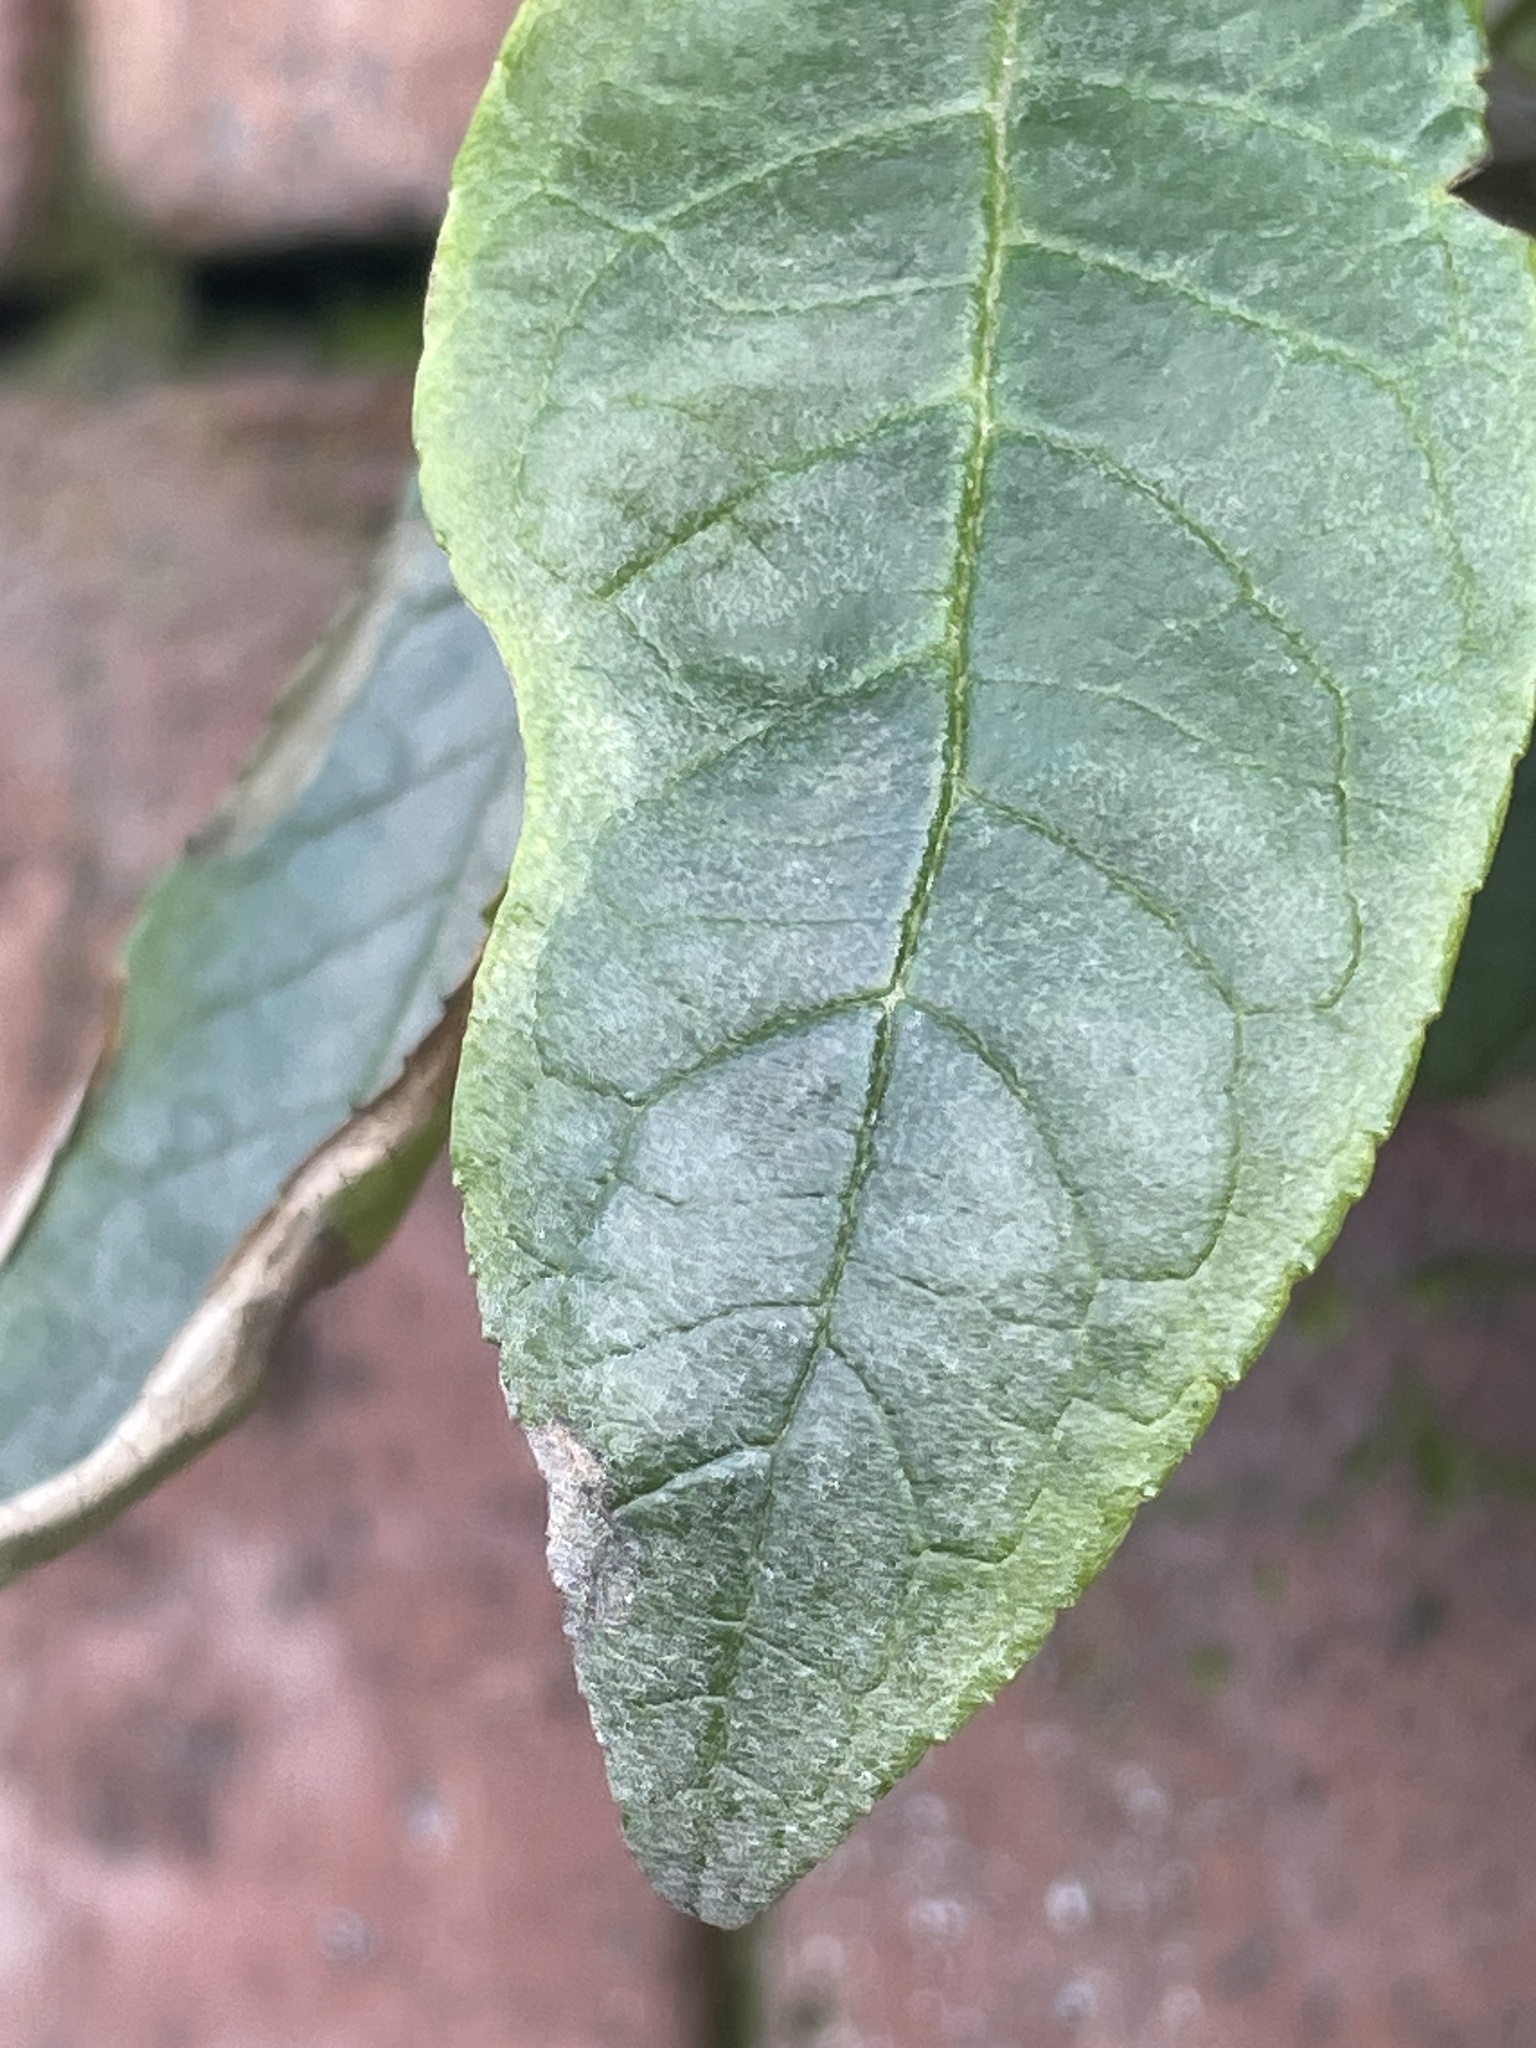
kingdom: Plantae
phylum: Tracheophyta
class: Magnoliopsida
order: Lamiales
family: Scrophulariaceae
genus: Buddleja
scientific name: Buddleja davidii
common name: Butterfly-bush
